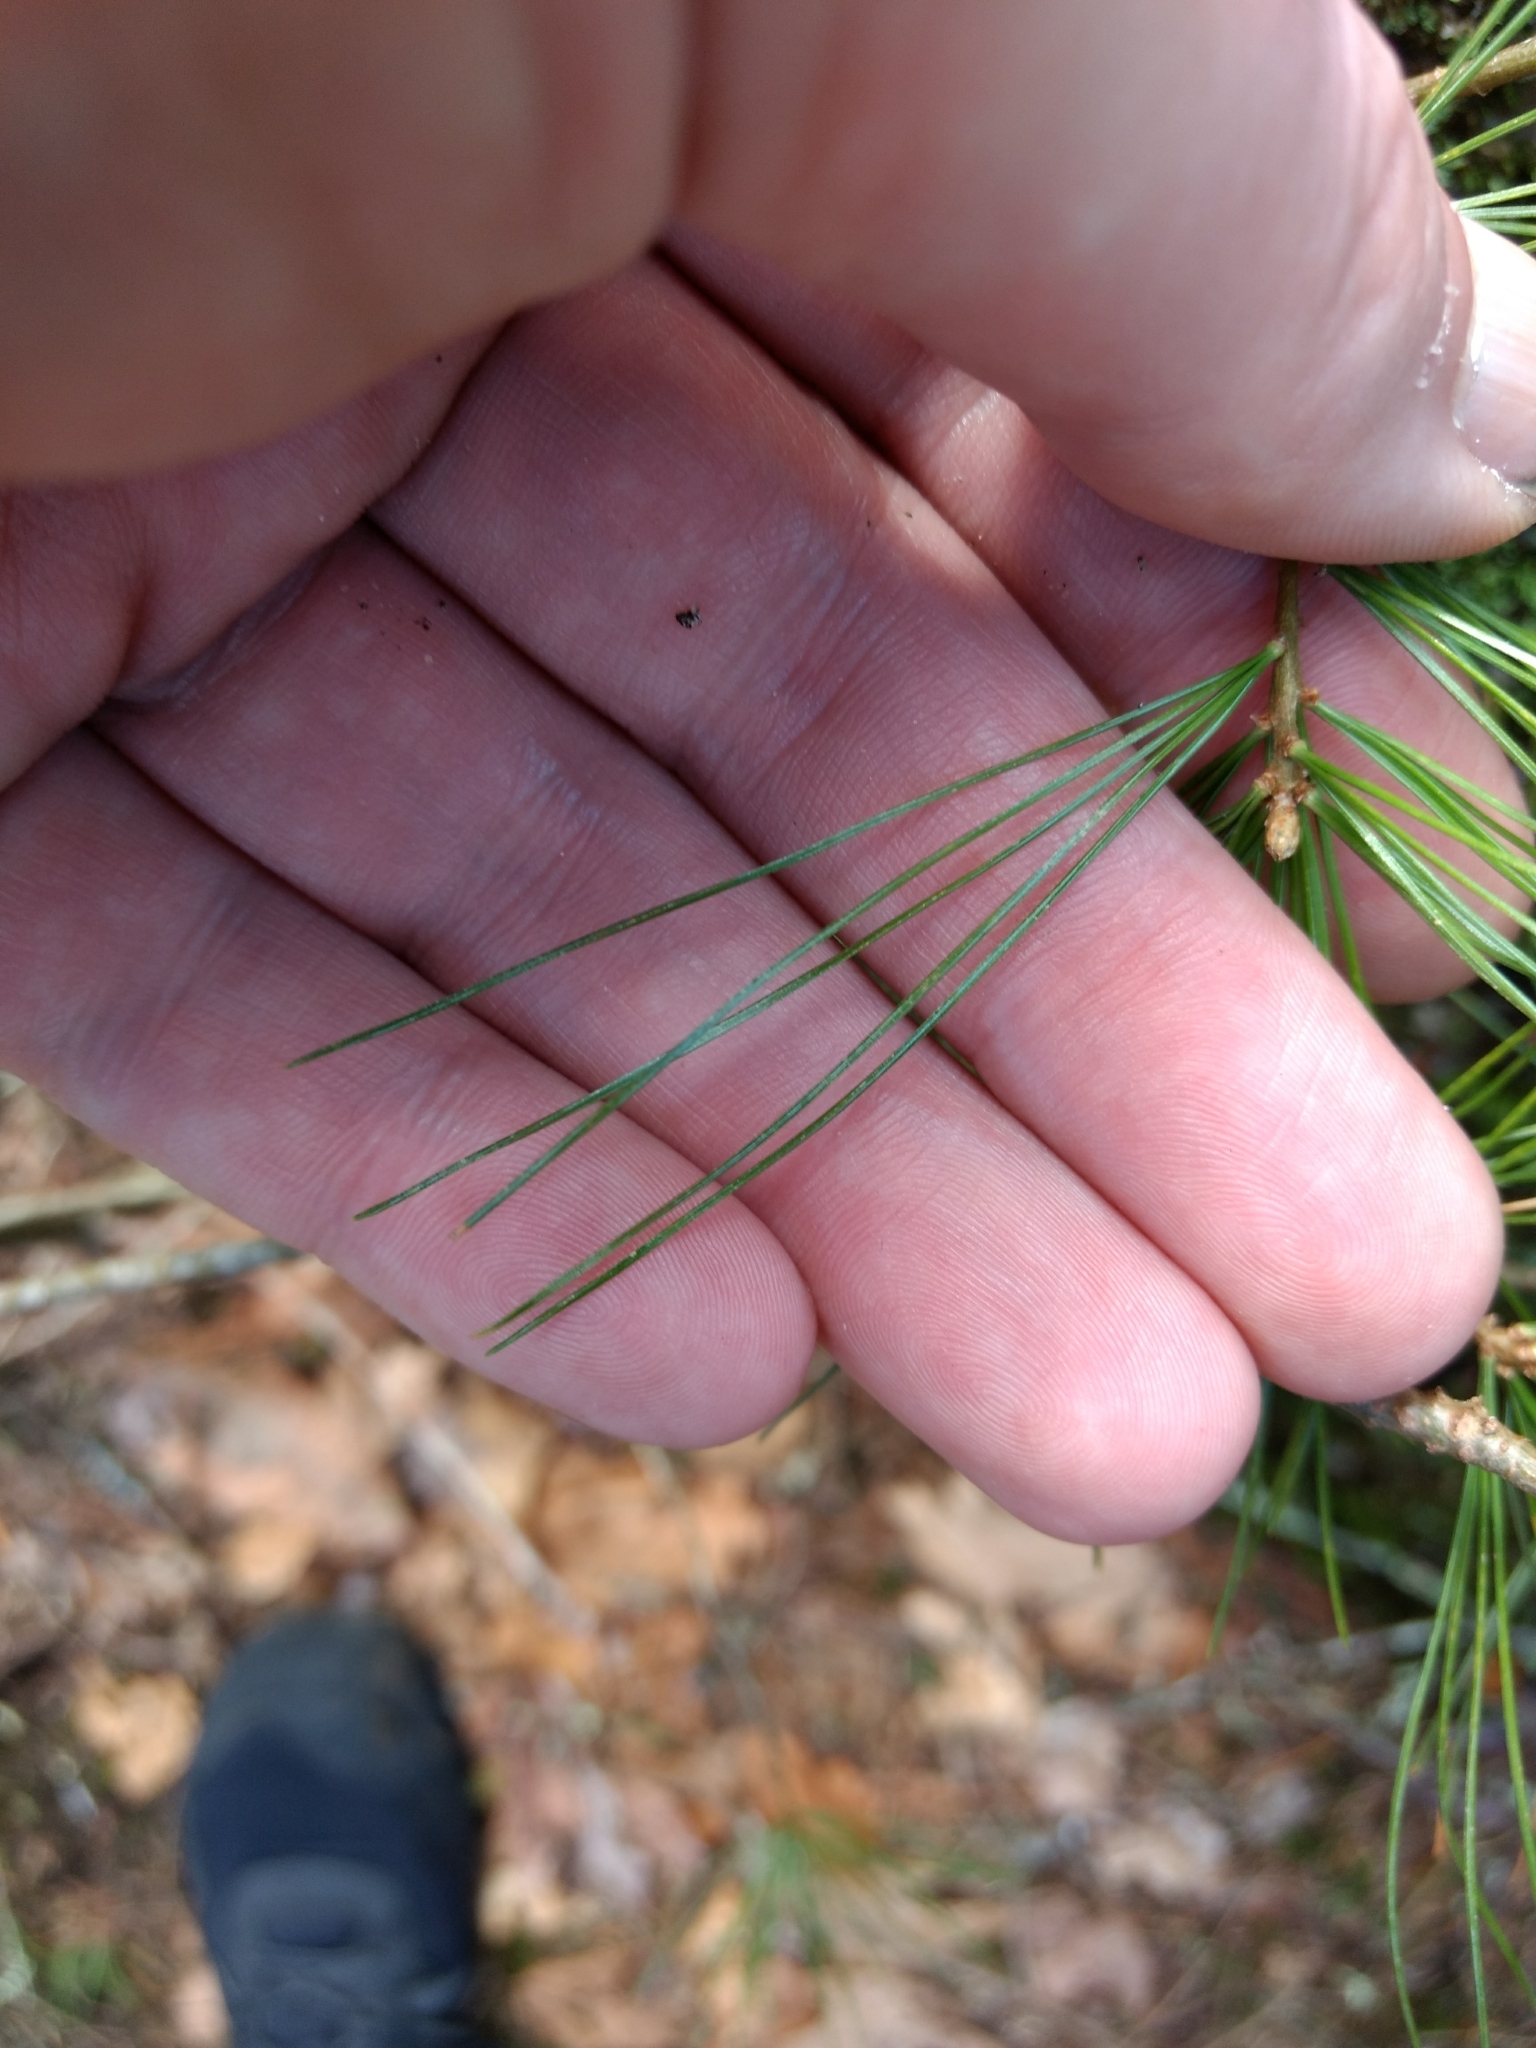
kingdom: Plantae
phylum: Tracheophyta
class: Pinopsida
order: Pinales
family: Pinaceae
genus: Pinus
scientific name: Pinus strobus
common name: Weymouth pine
